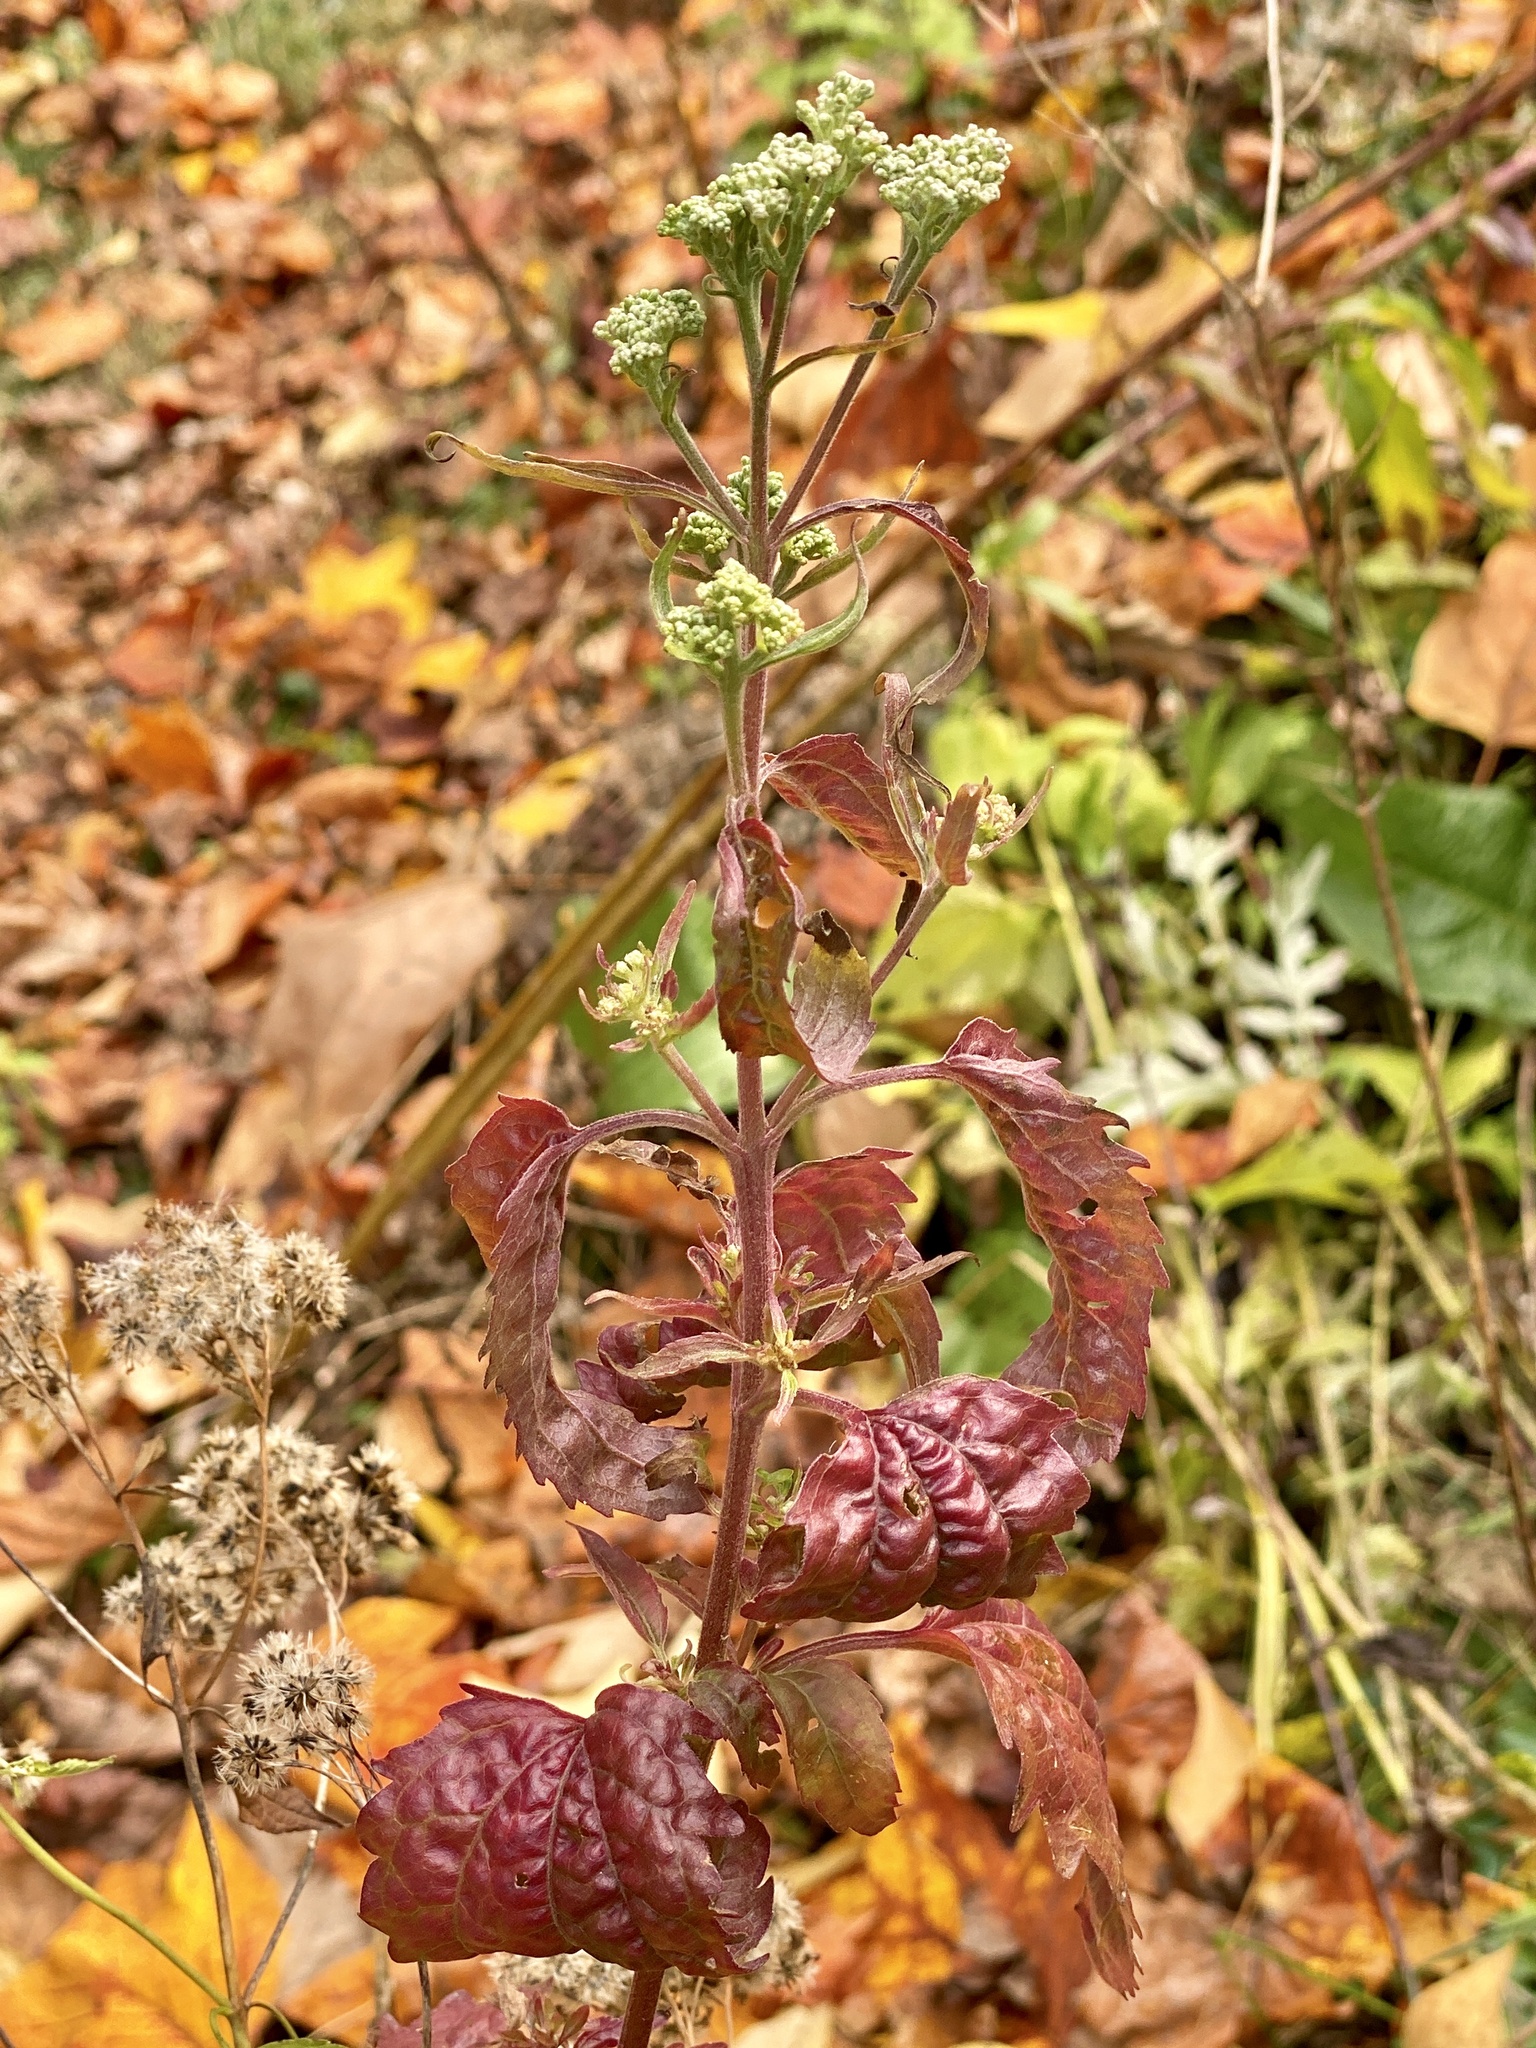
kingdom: Plantae
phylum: Tracheophyta
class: Magnoliopsida
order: Asterales
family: Asteraceae
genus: Eupatorium
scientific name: Eupatorium serotinum
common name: Late boneset
